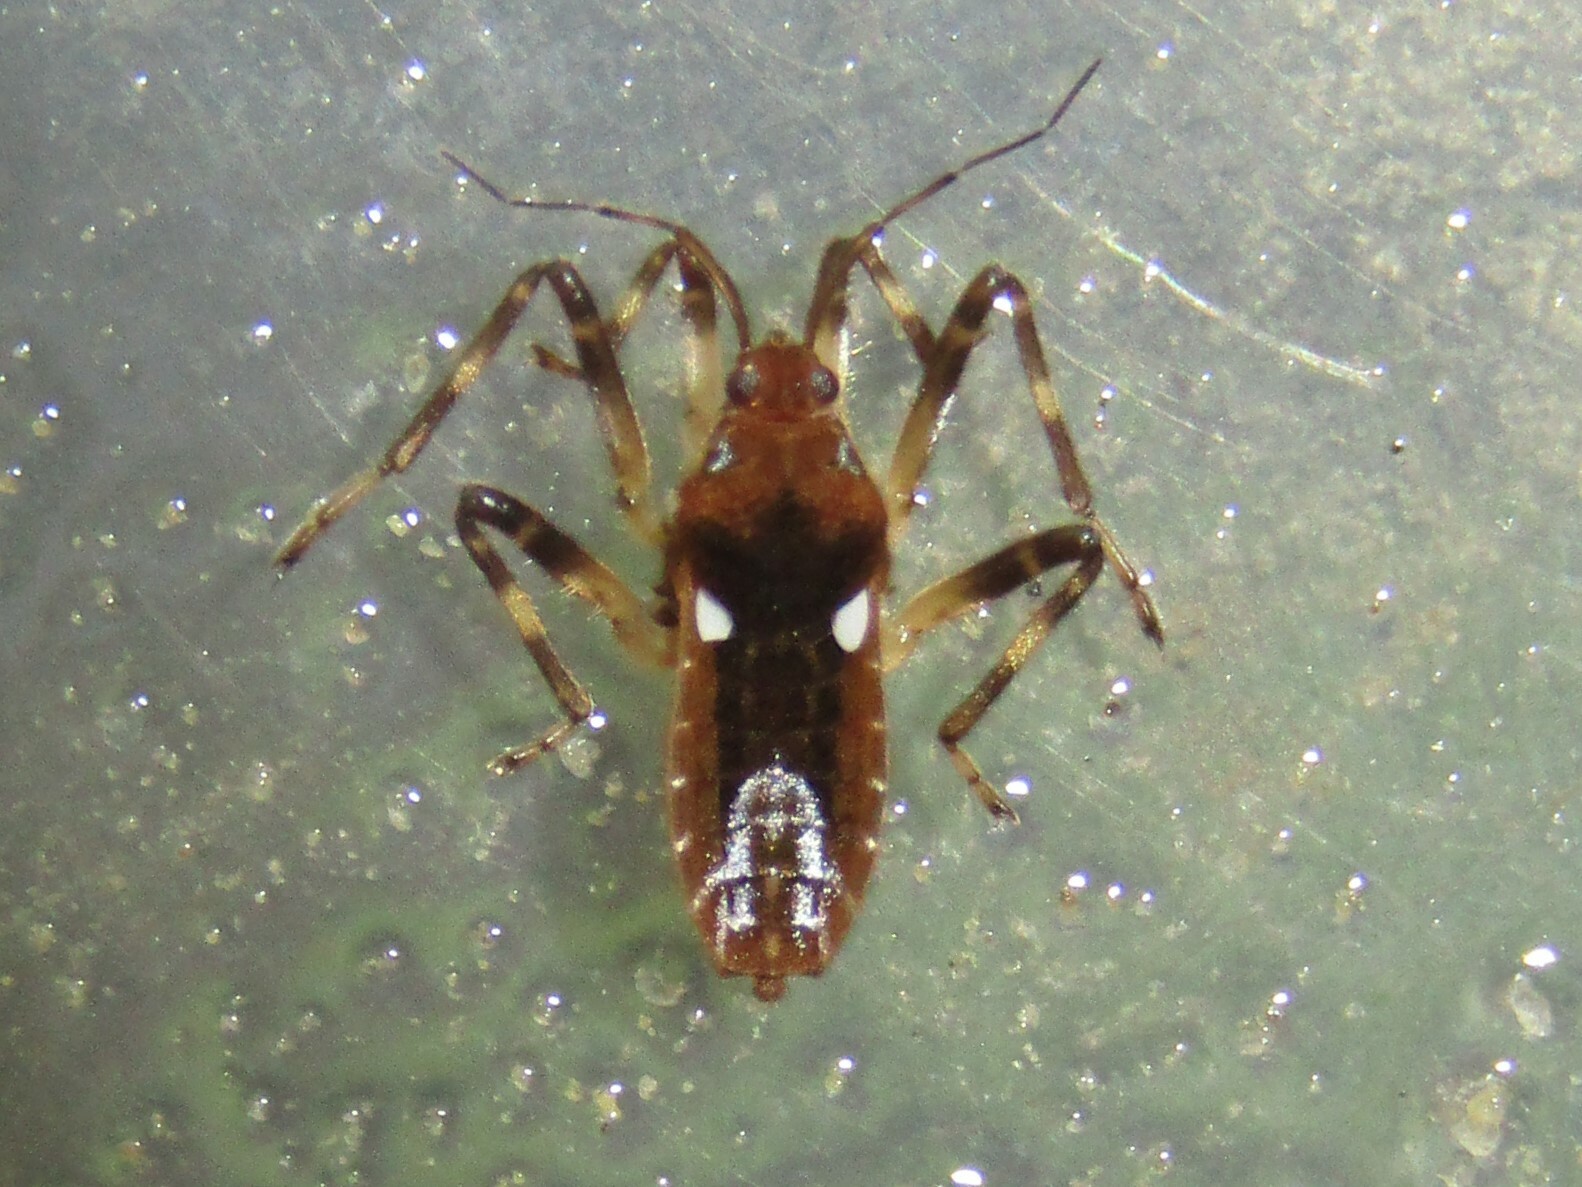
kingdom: Animalia
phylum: Arthropoda
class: Insecta
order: Hemiptera
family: Veliidae
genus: Platyvelia
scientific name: Platyvelia brachialis
